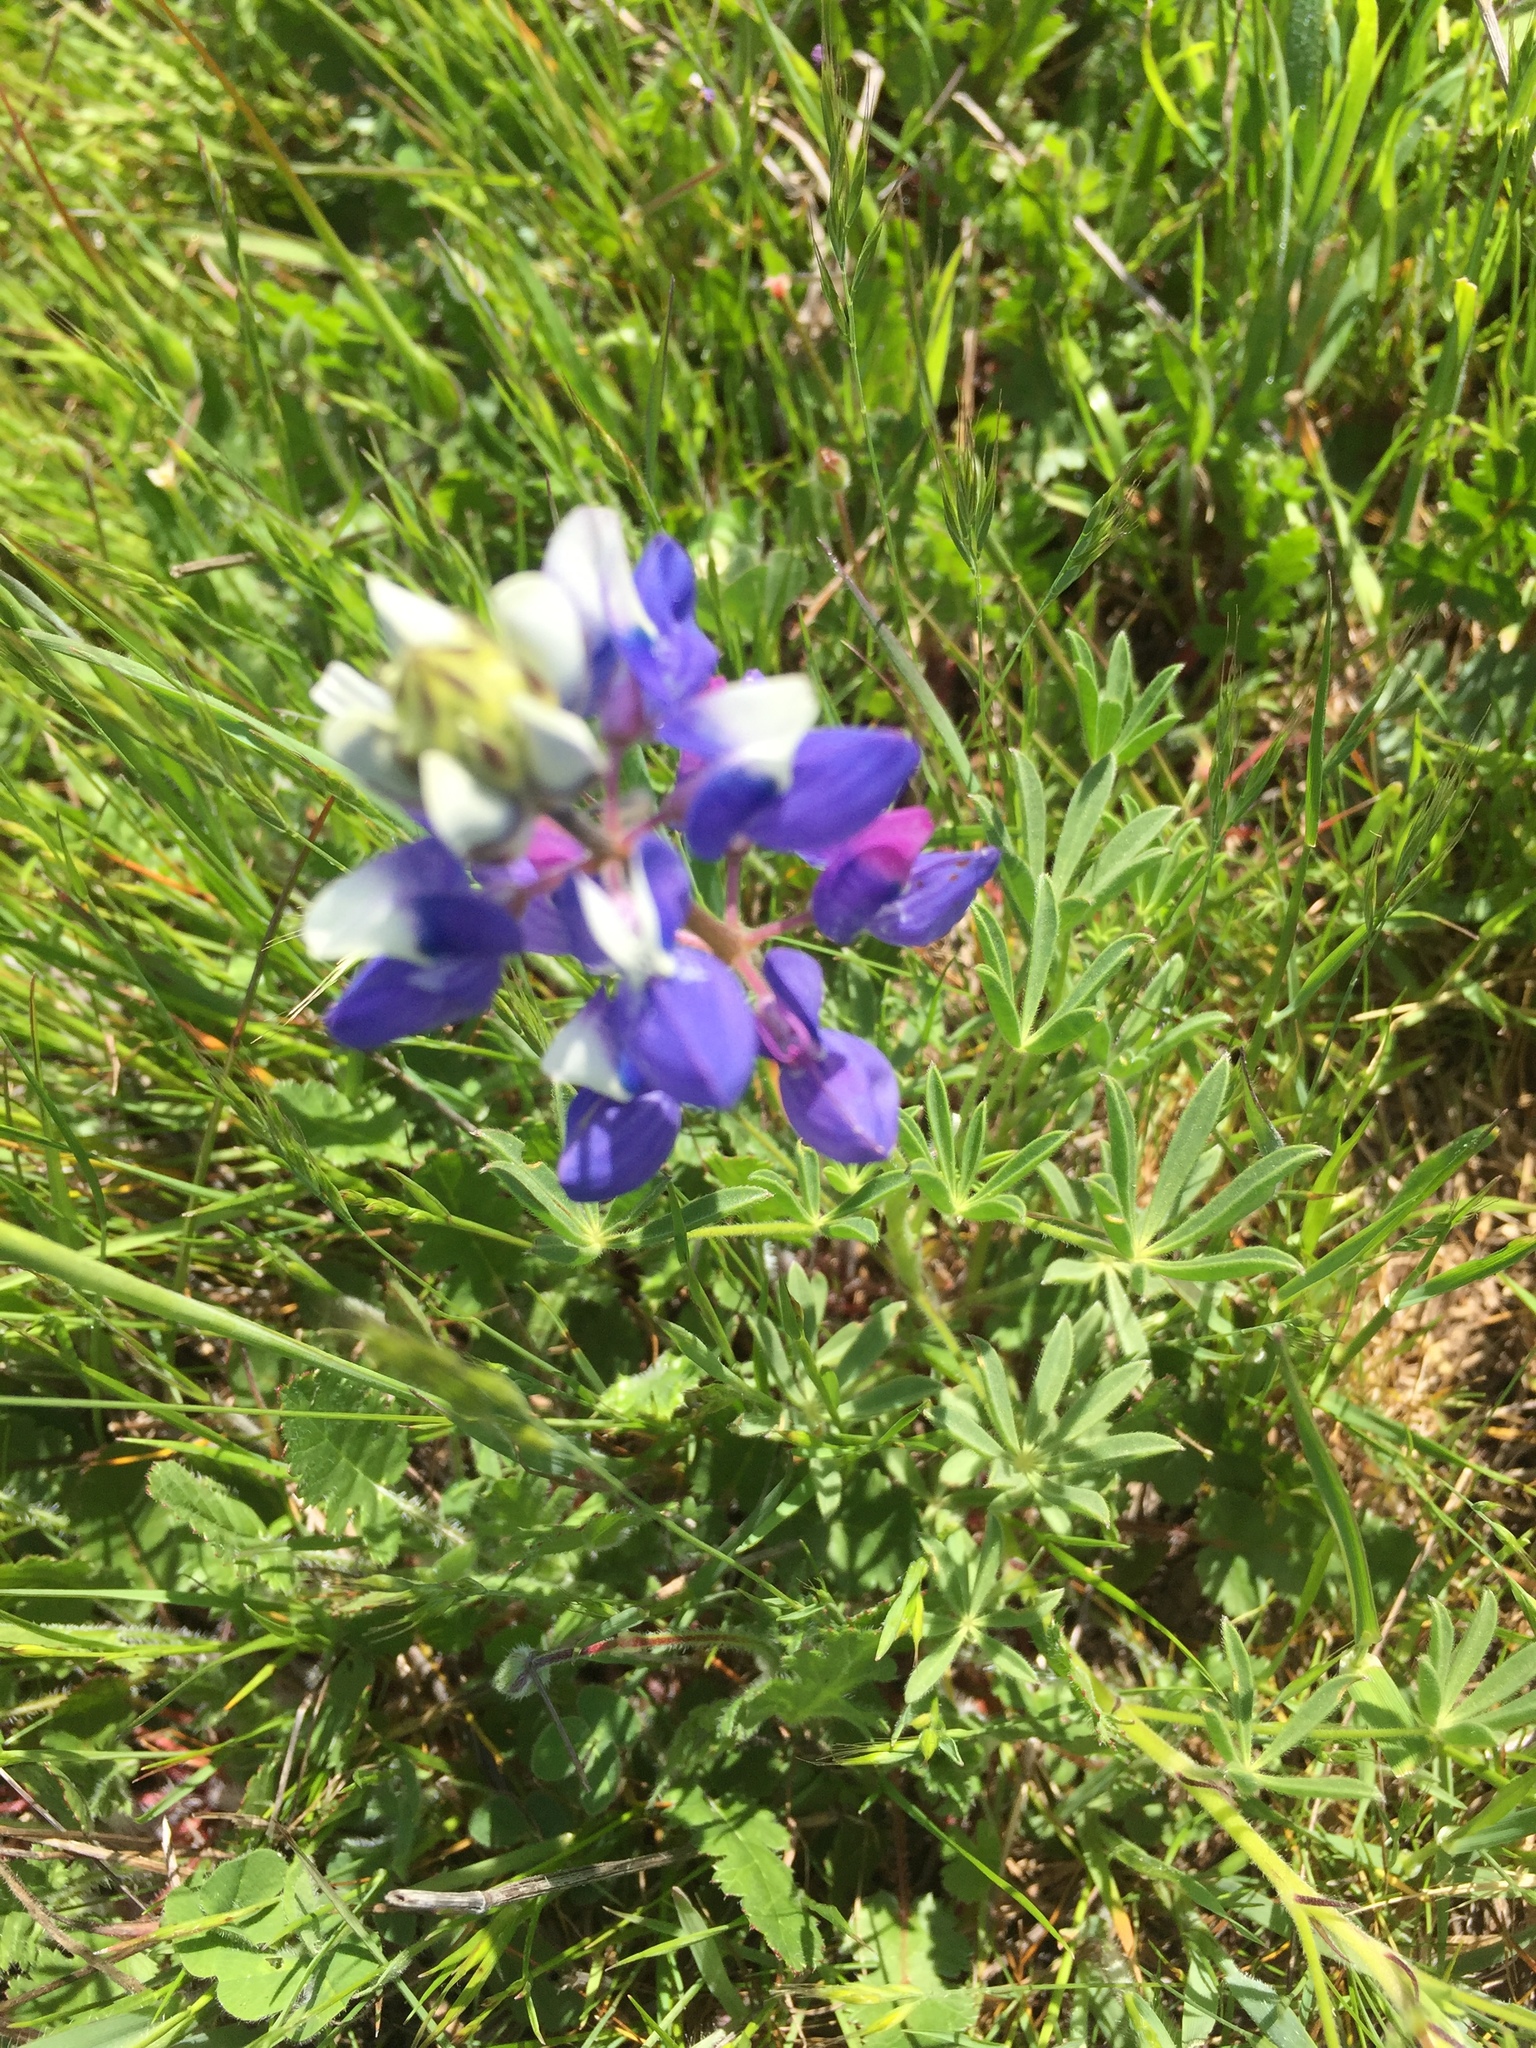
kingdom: Plantae
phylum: Tracheophyta
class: Magnoliopsida
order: Fabales
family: Fabaceae
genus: Lupinus
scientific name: Lupinus nanus
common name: Orean blue lupin
